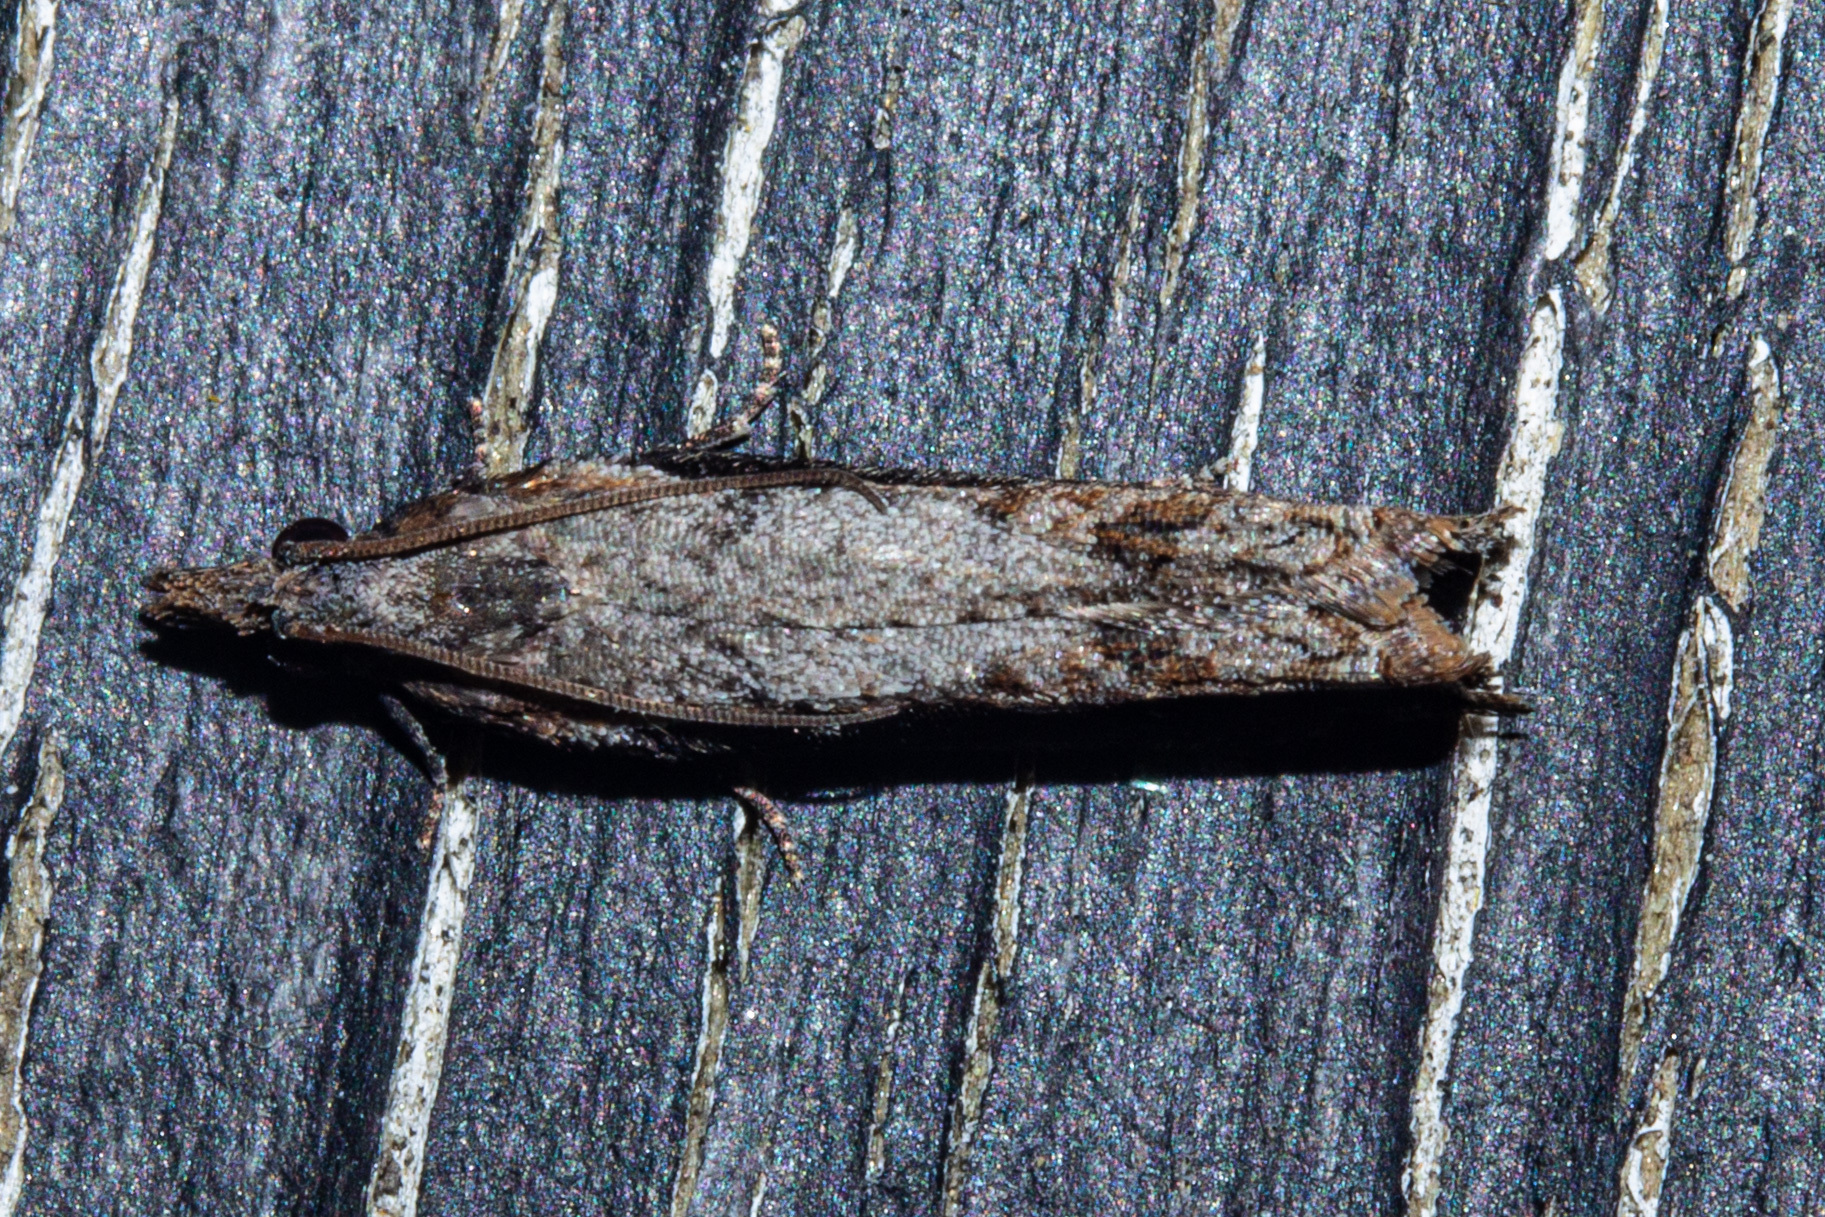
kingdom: Animalia
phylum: Arthropoda
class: Insecta
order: Lepidoptera
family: Tortricidae
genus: Strepsicrates
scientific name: Strepsicrates infensa
